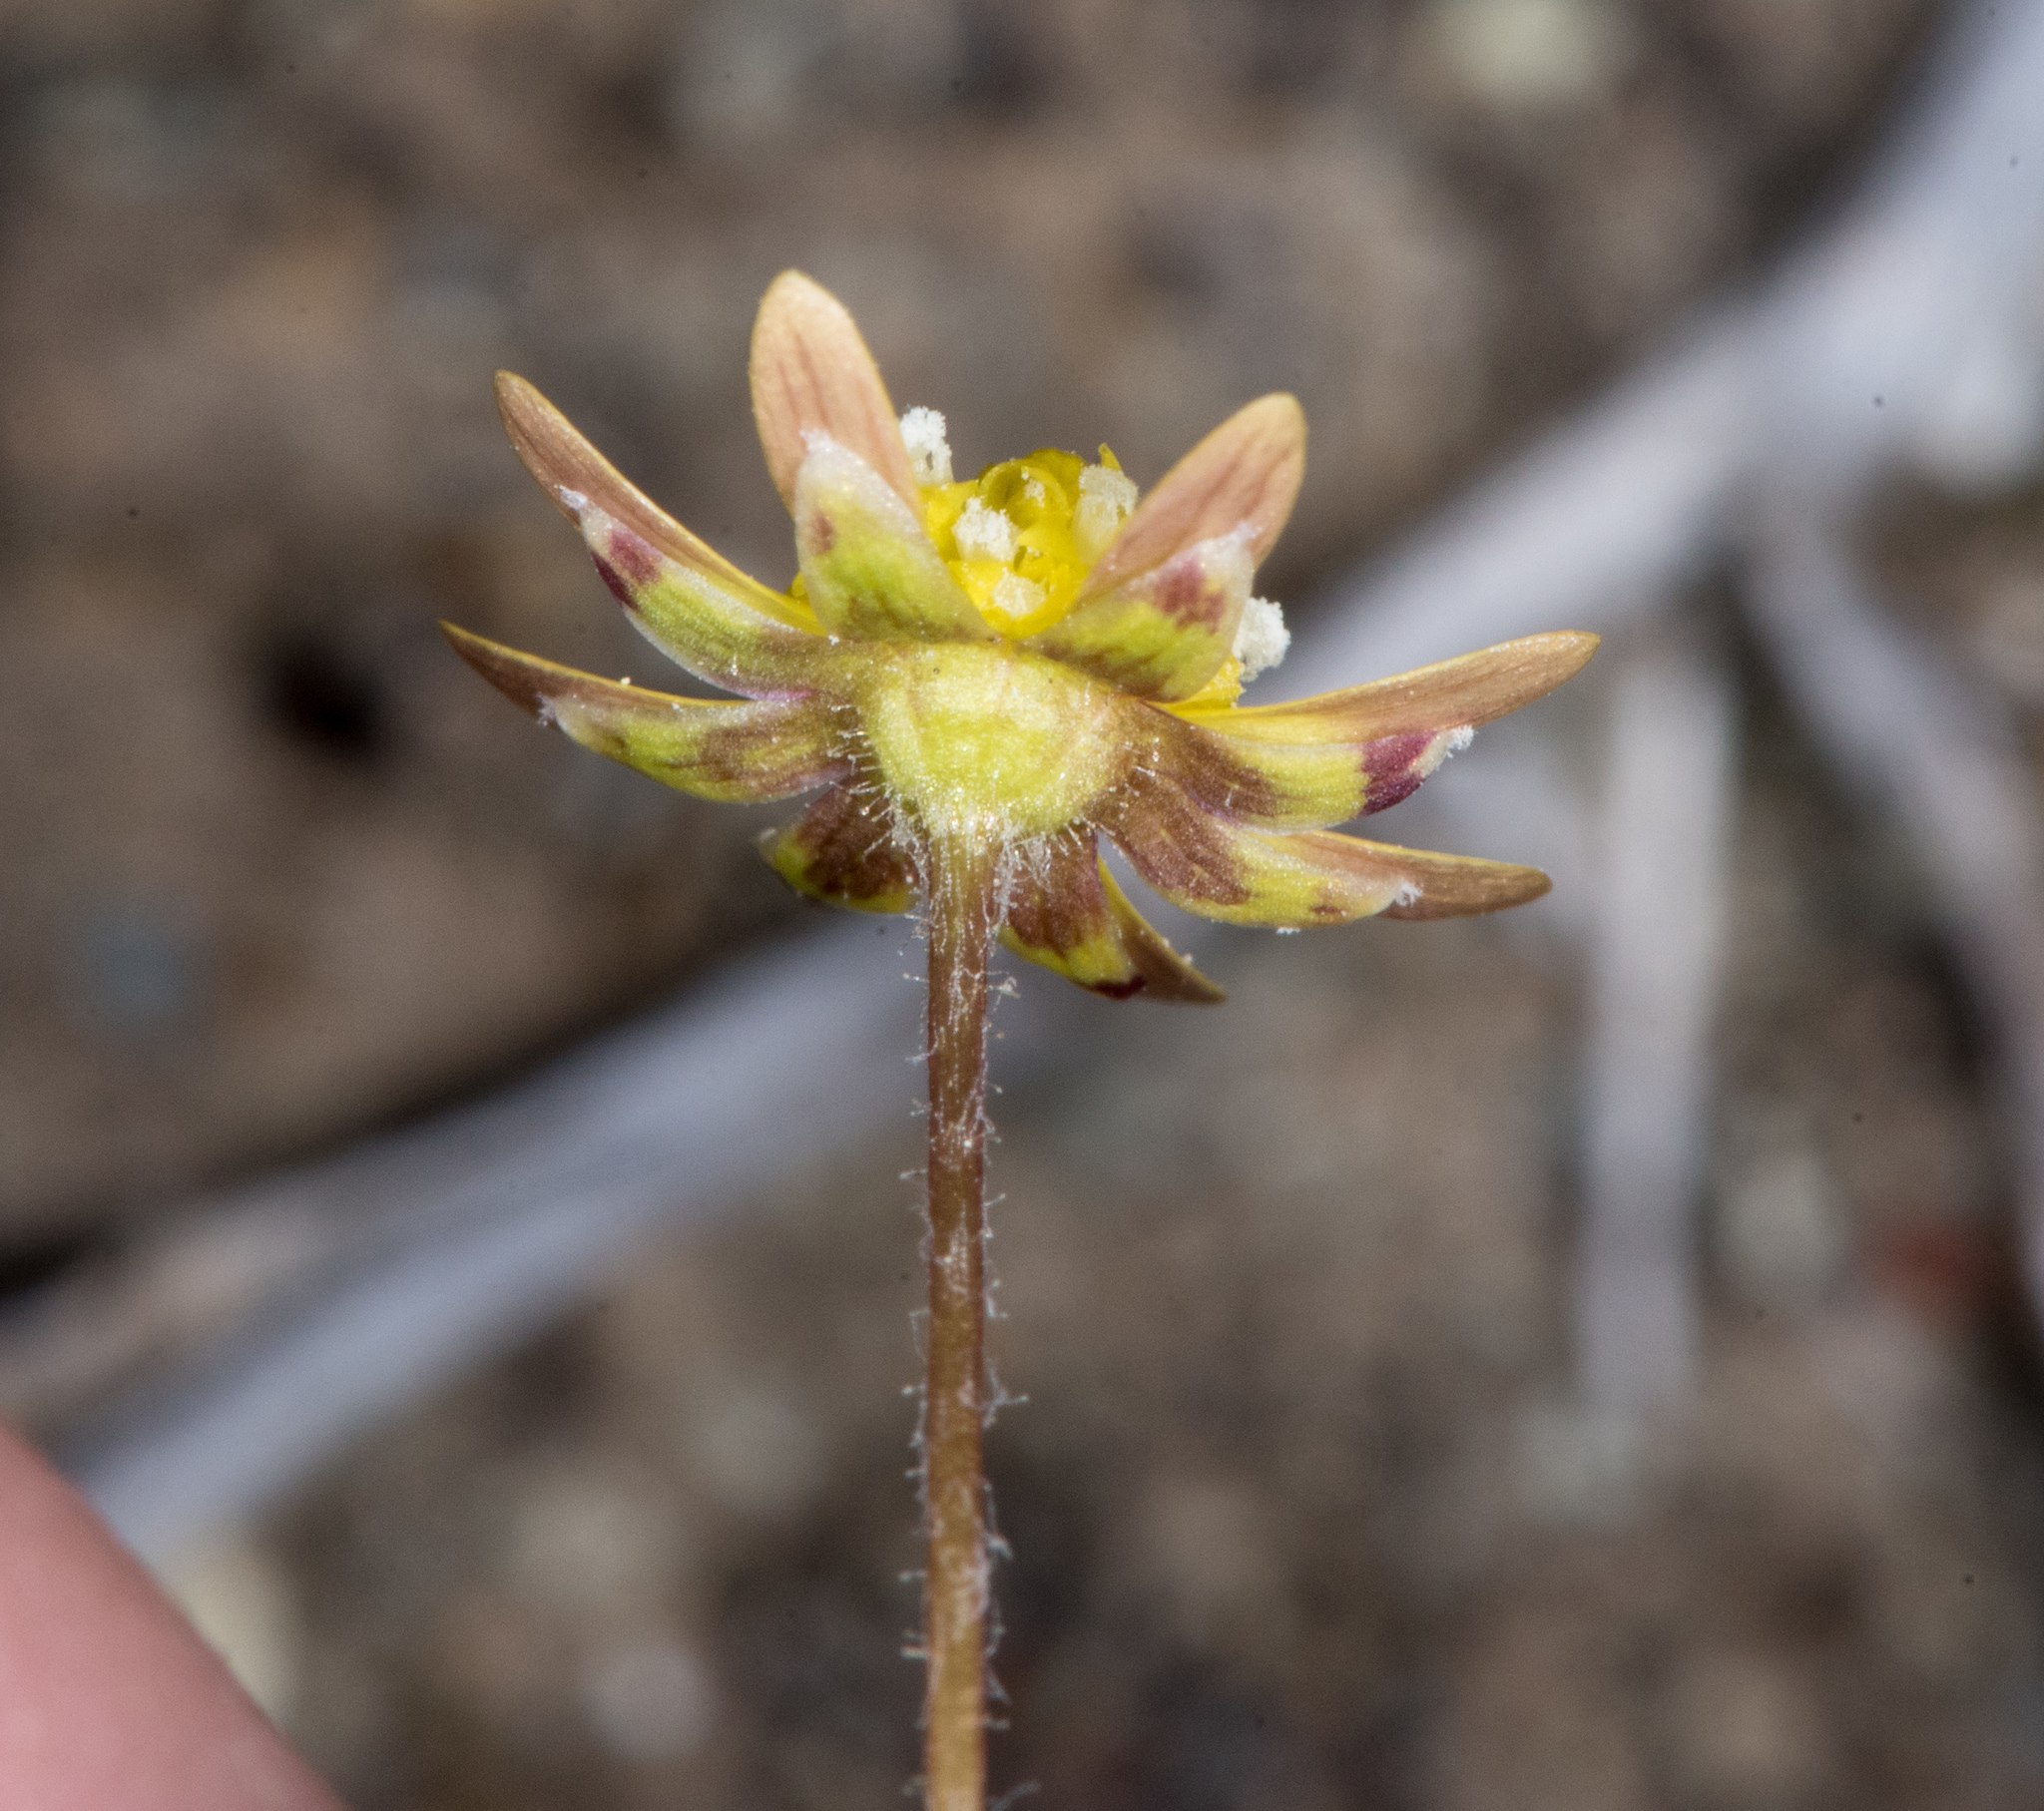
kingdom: Plantae
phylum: Tracheophyta
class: Magnoliopsida
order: Asterales
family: Asteraceae
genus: Blennosperma
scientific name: Blennosperma nanum
